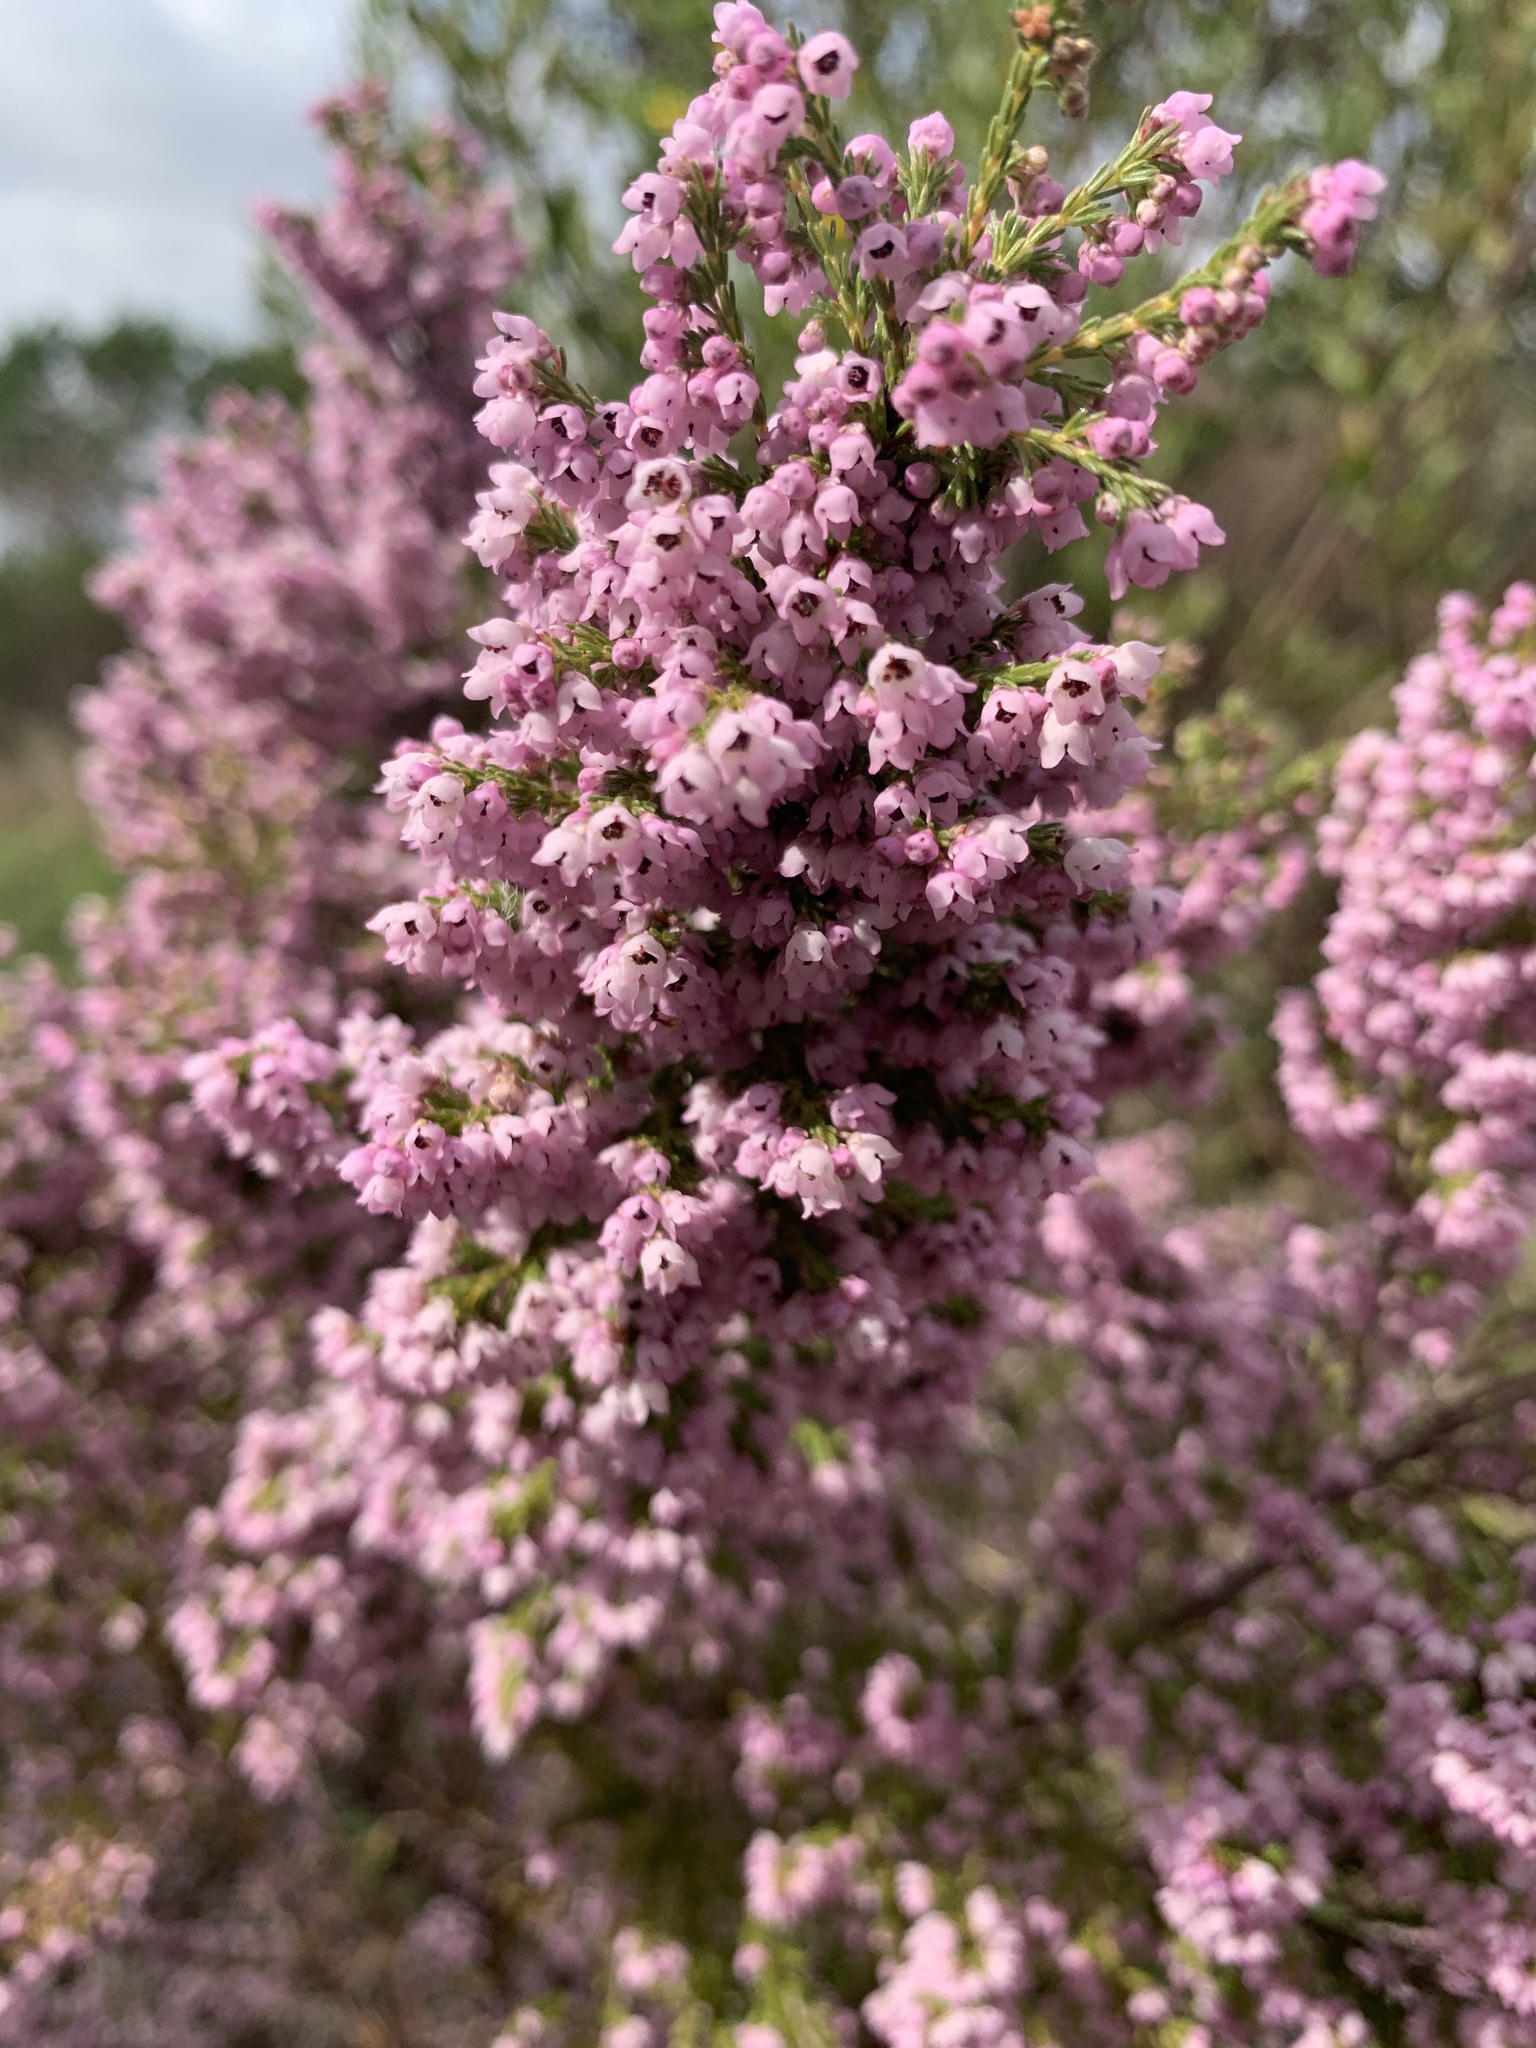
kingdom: Plantae
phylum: Tracheophyta
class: Magnoliopsida
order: Ericales
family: Ericaceae
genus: Erica
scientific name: Erica mauritanica
